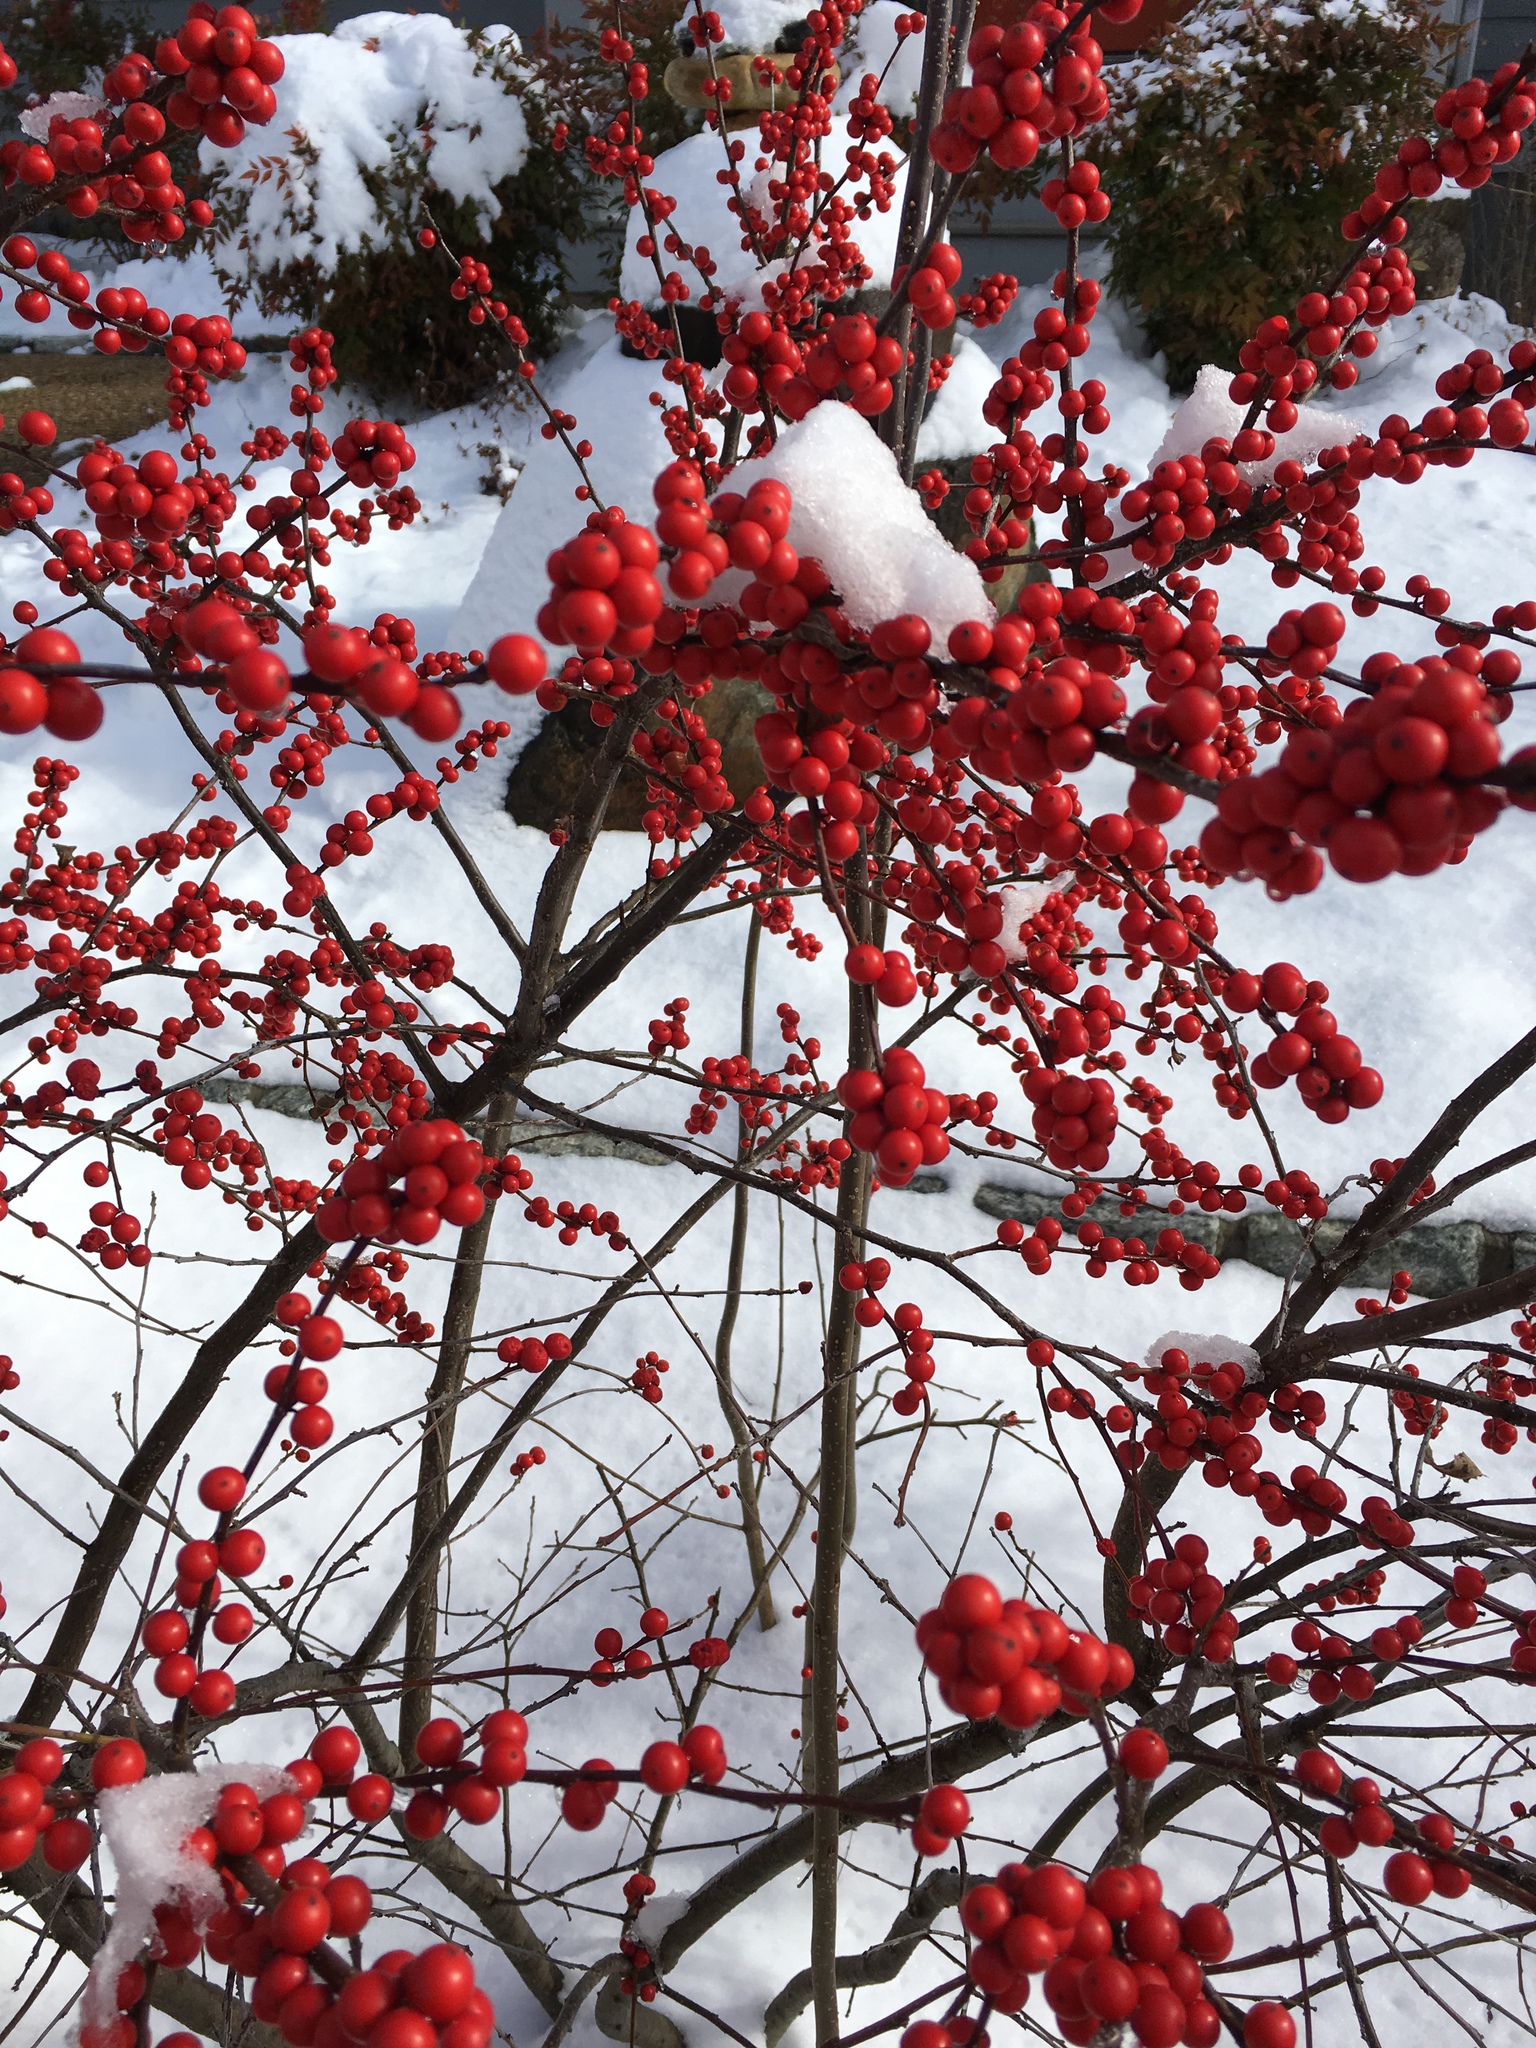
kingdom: Plantae
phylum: Tracheophyta
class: Magnoliopsida
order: Aquifoliales
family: Aquifoliaceae
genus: Ilex
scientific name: Ilex verticillata
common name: Virginia winterberry
